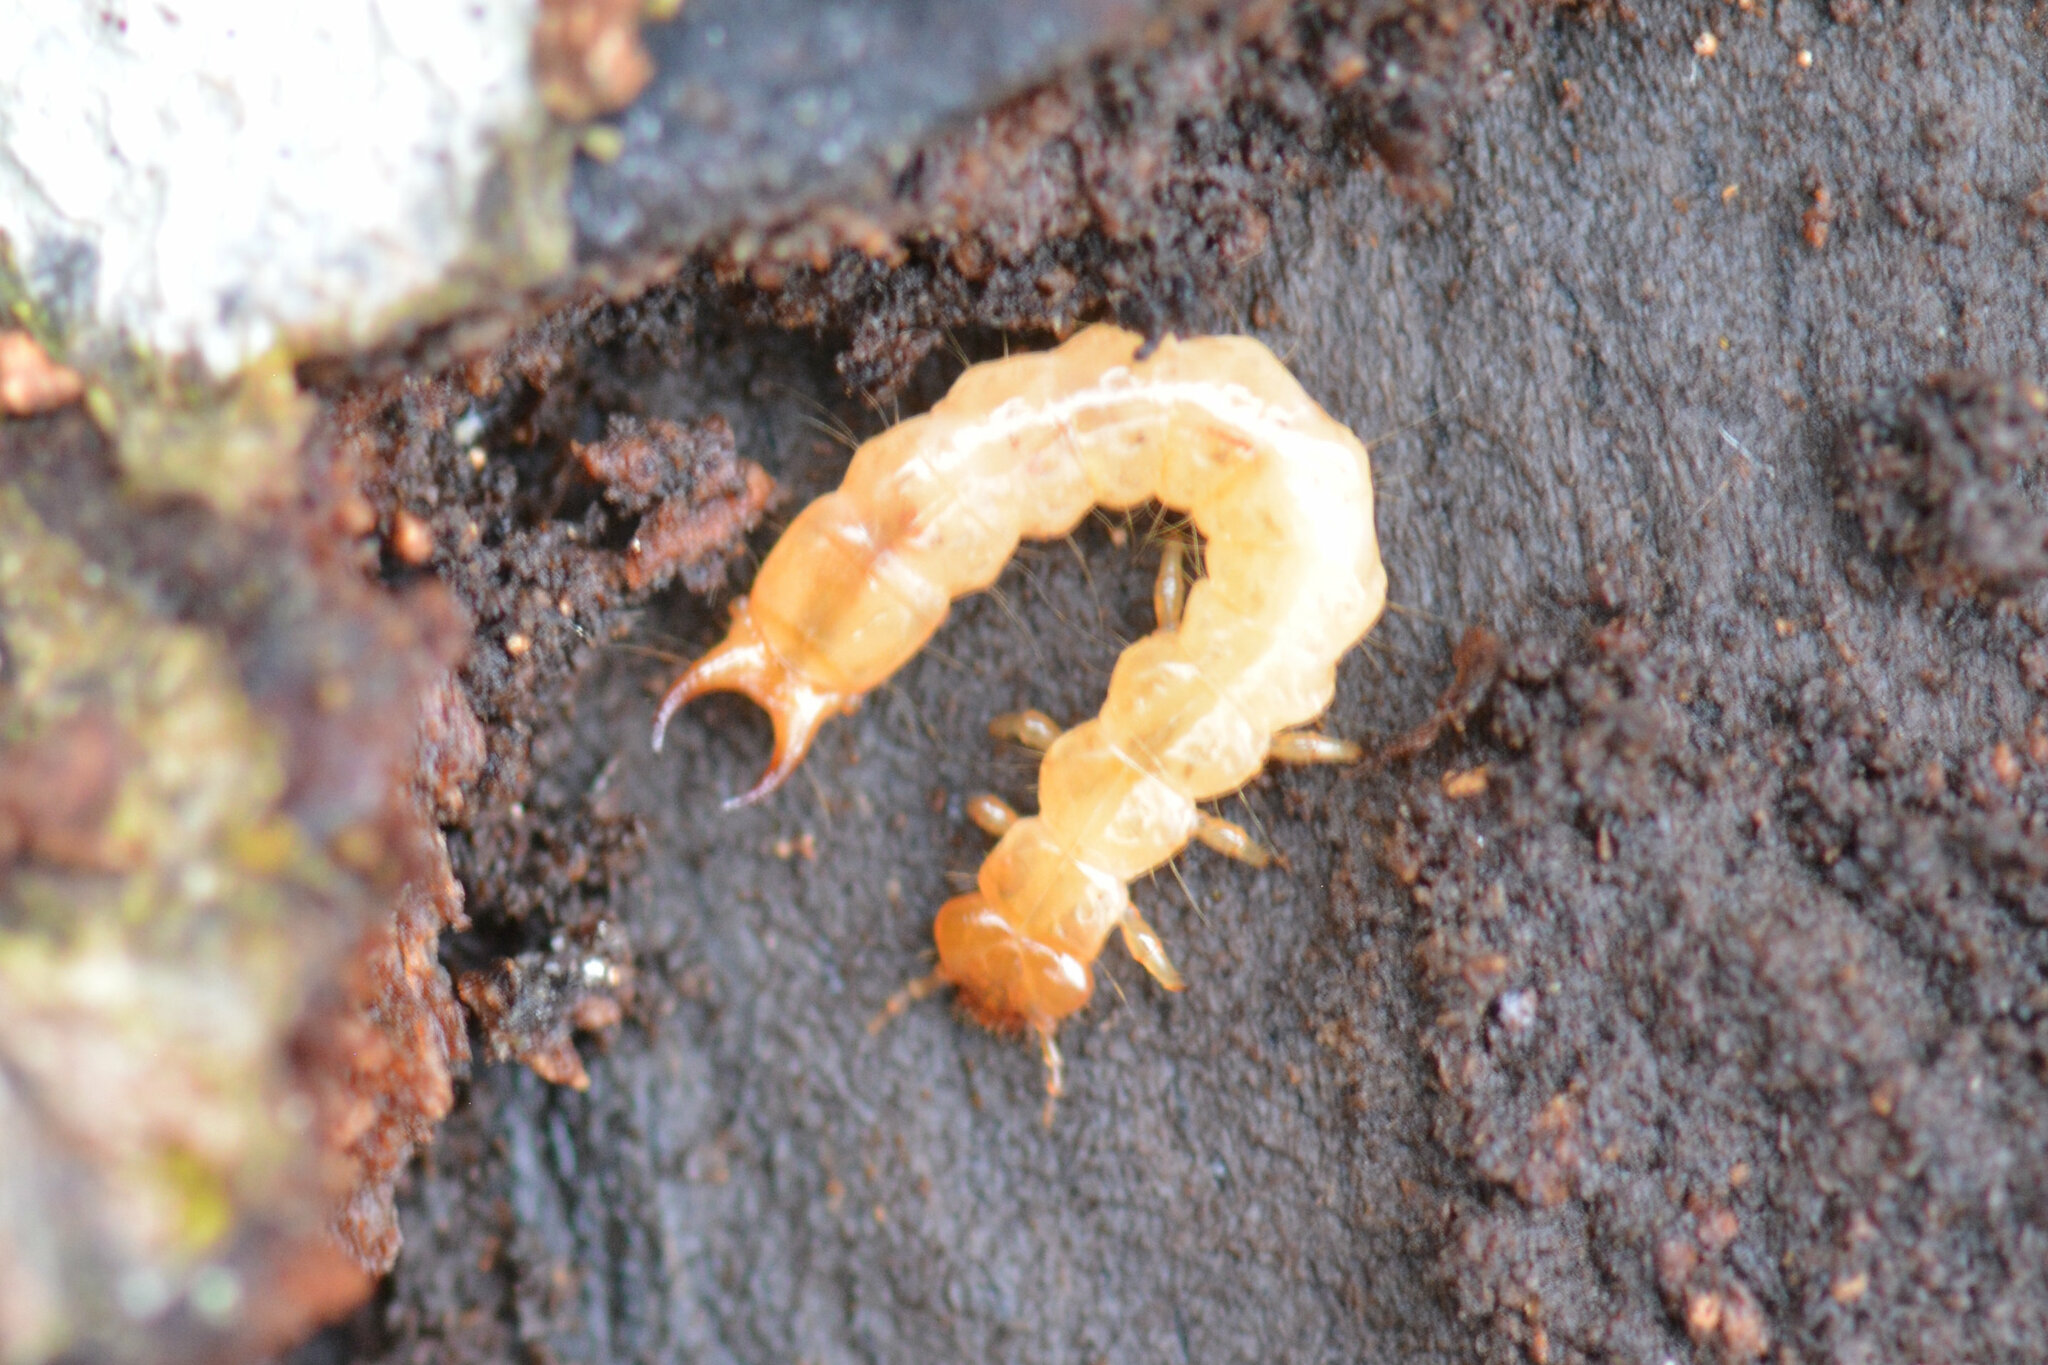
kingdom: Animalia
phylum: Arthropoda
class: Insecta
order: Coleoptera
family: Pyrochroidae
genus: Schizotus
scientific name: Schizotus pectinicornis
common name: Scarce cardinal beetle
